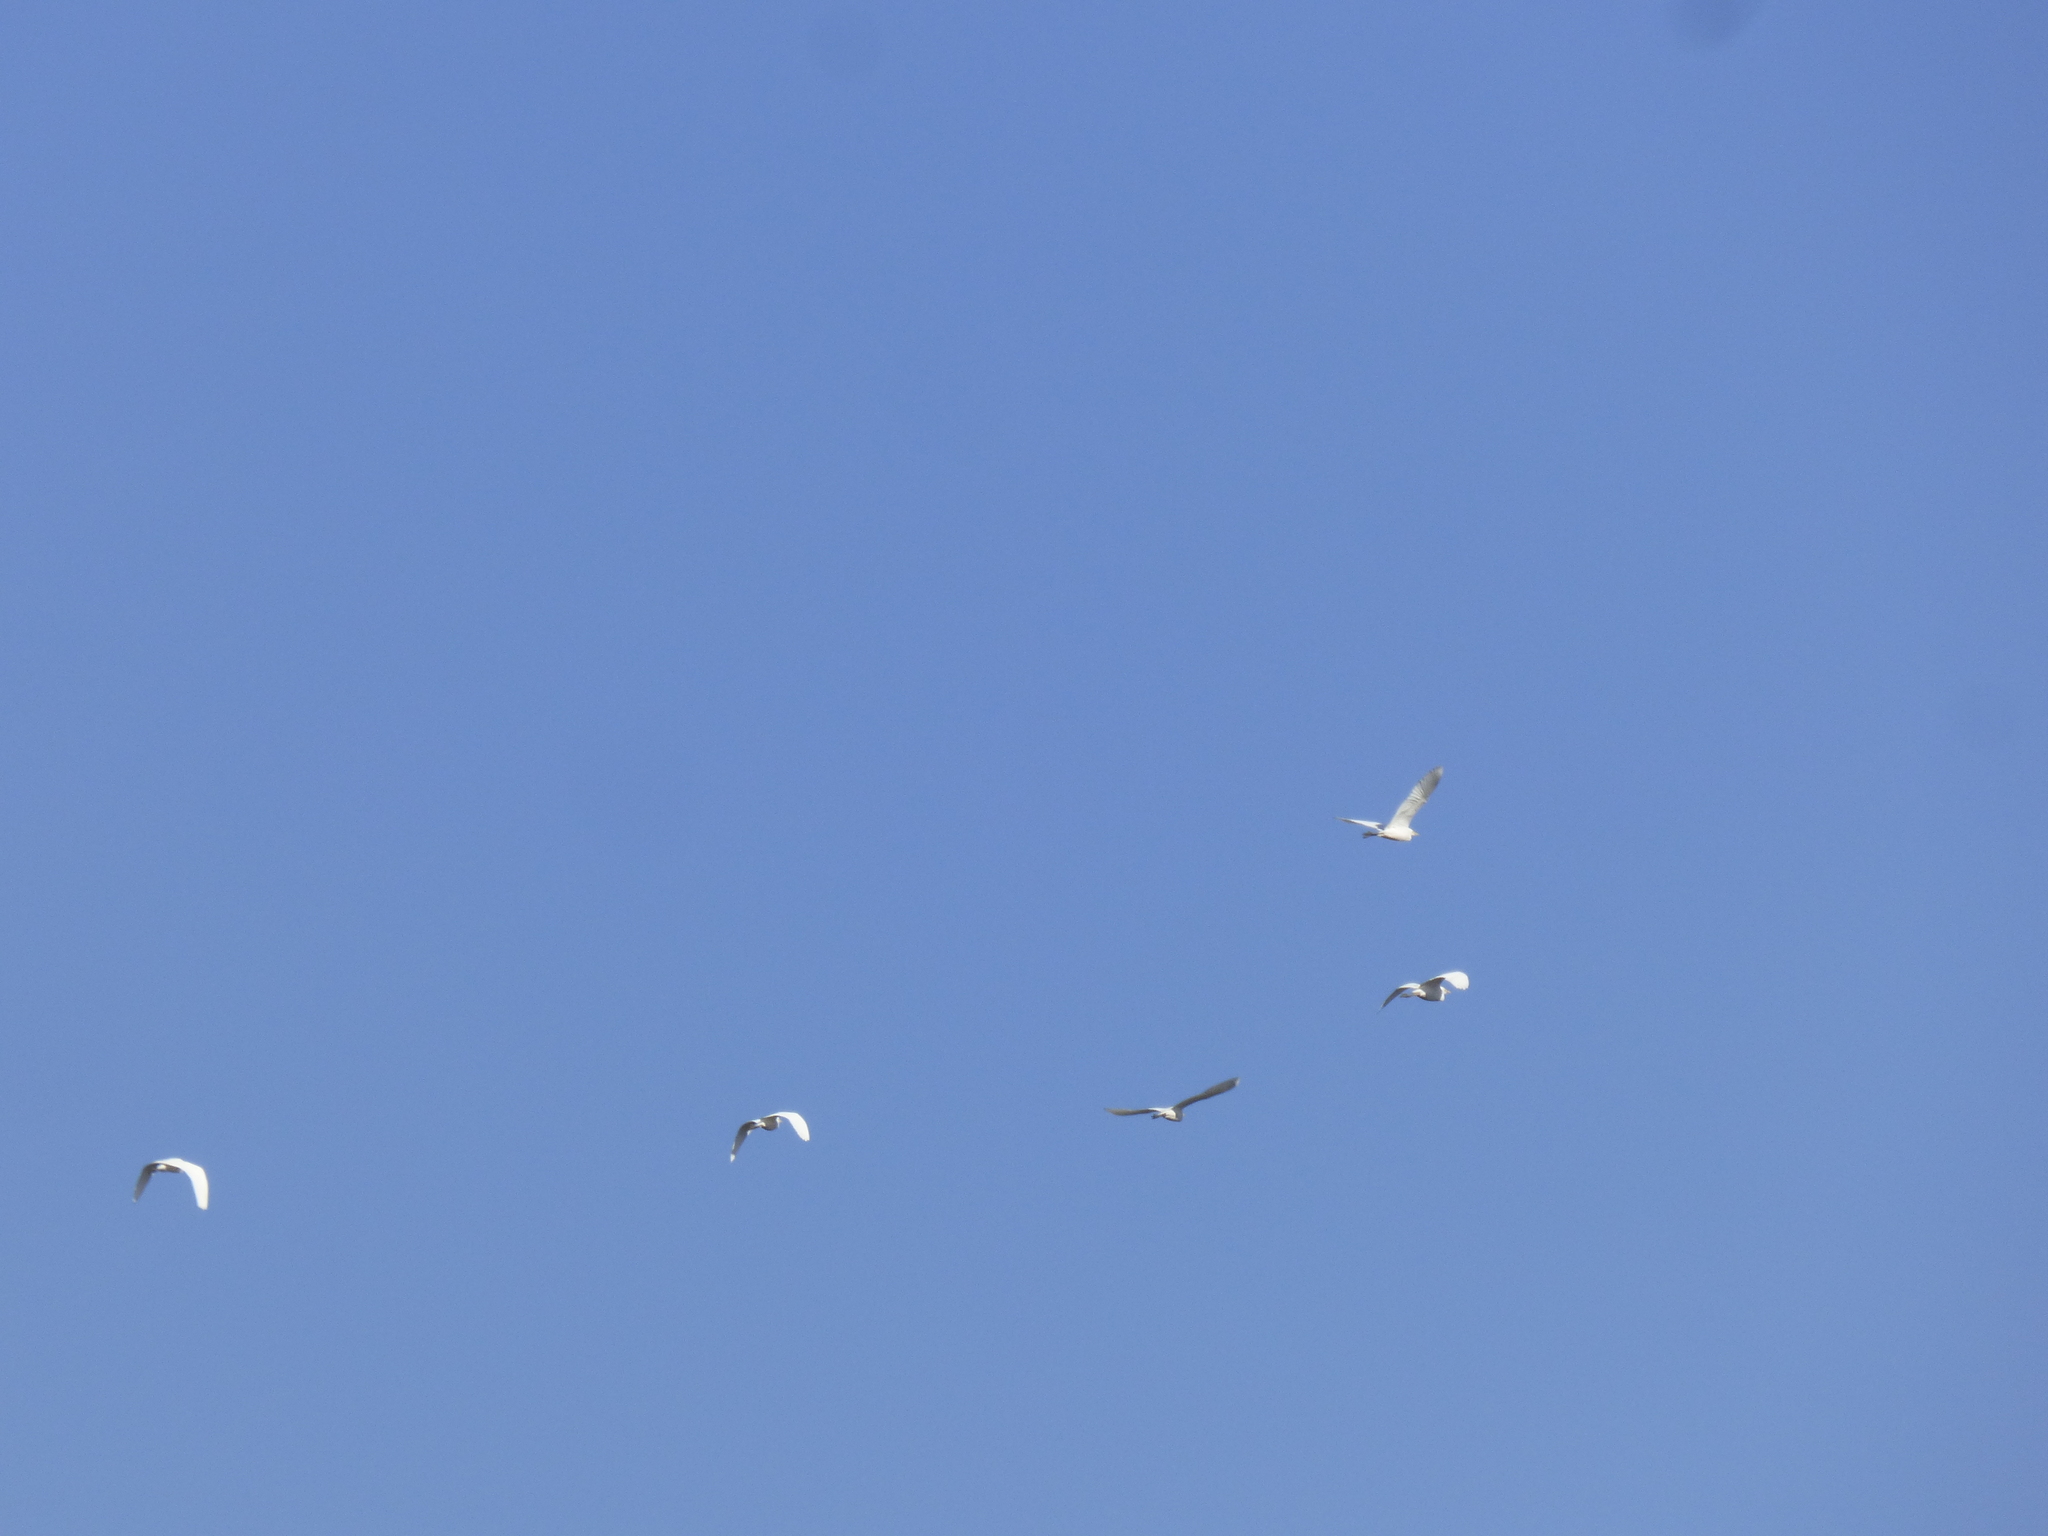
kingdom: Animalia
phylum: Chordata
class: Aves
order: Pelecaniformes
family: Ardeidae
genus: Bubulcus
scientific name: Bubulcus ibis
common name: Cattle egret
